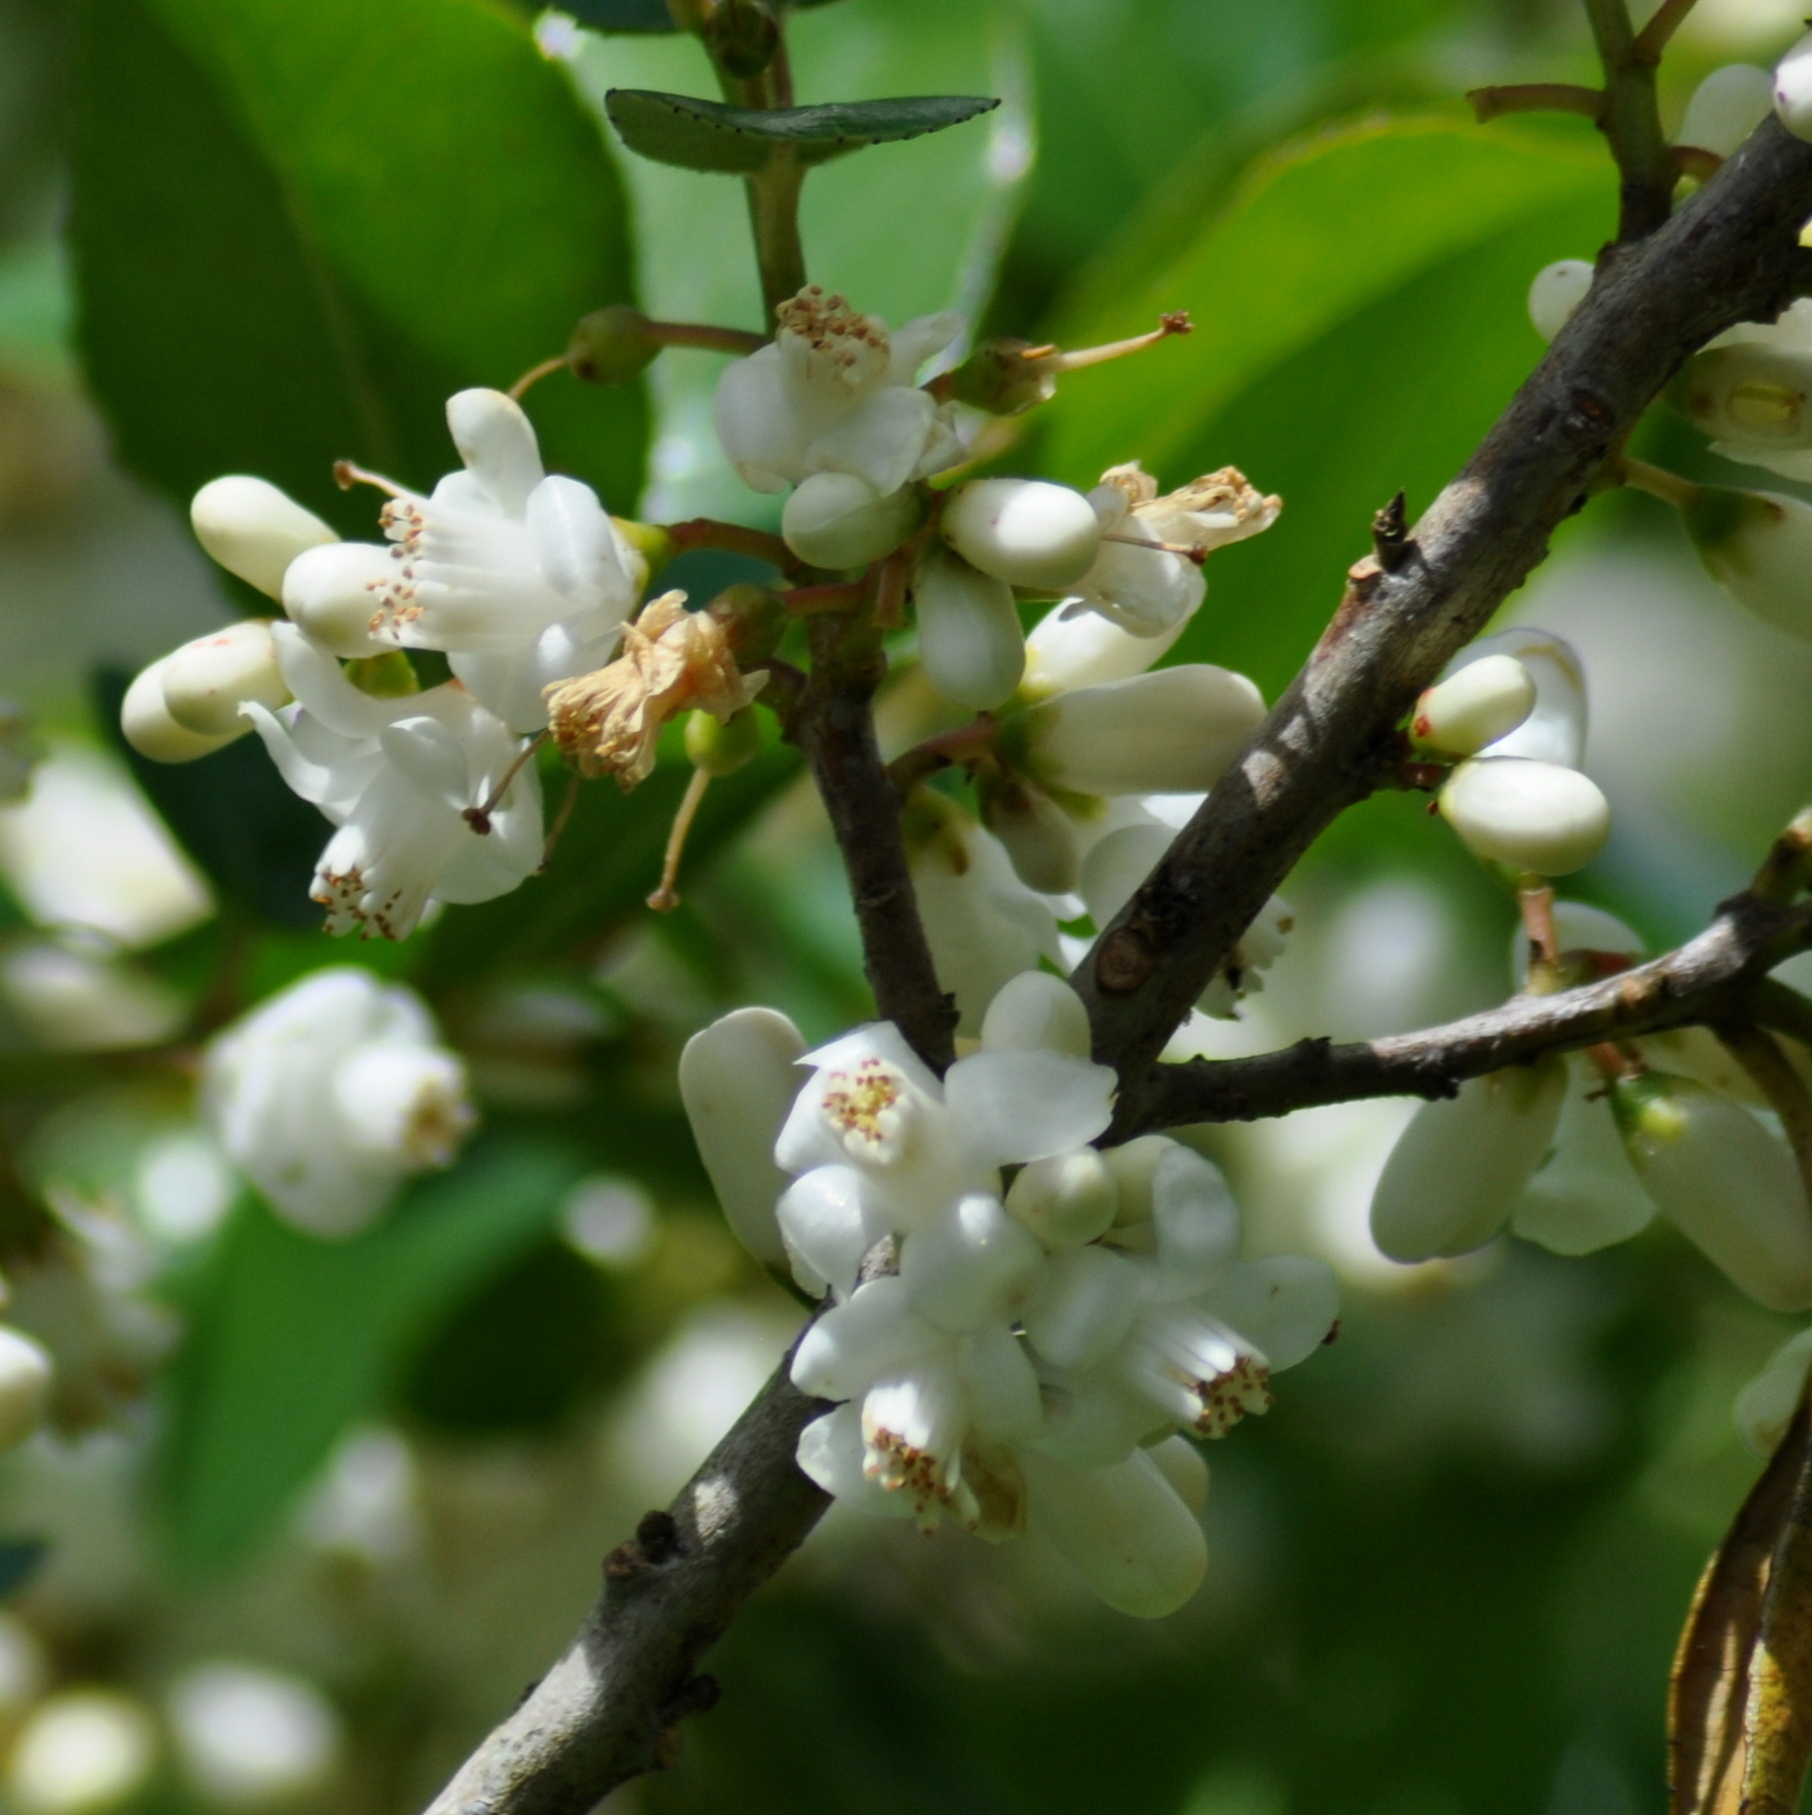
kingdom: Plantae
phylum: Tracheophyta
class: Magnoliopsida
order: Ericales
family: Symplocaceae
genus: Symplocos
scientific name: Symplocos uniflora
